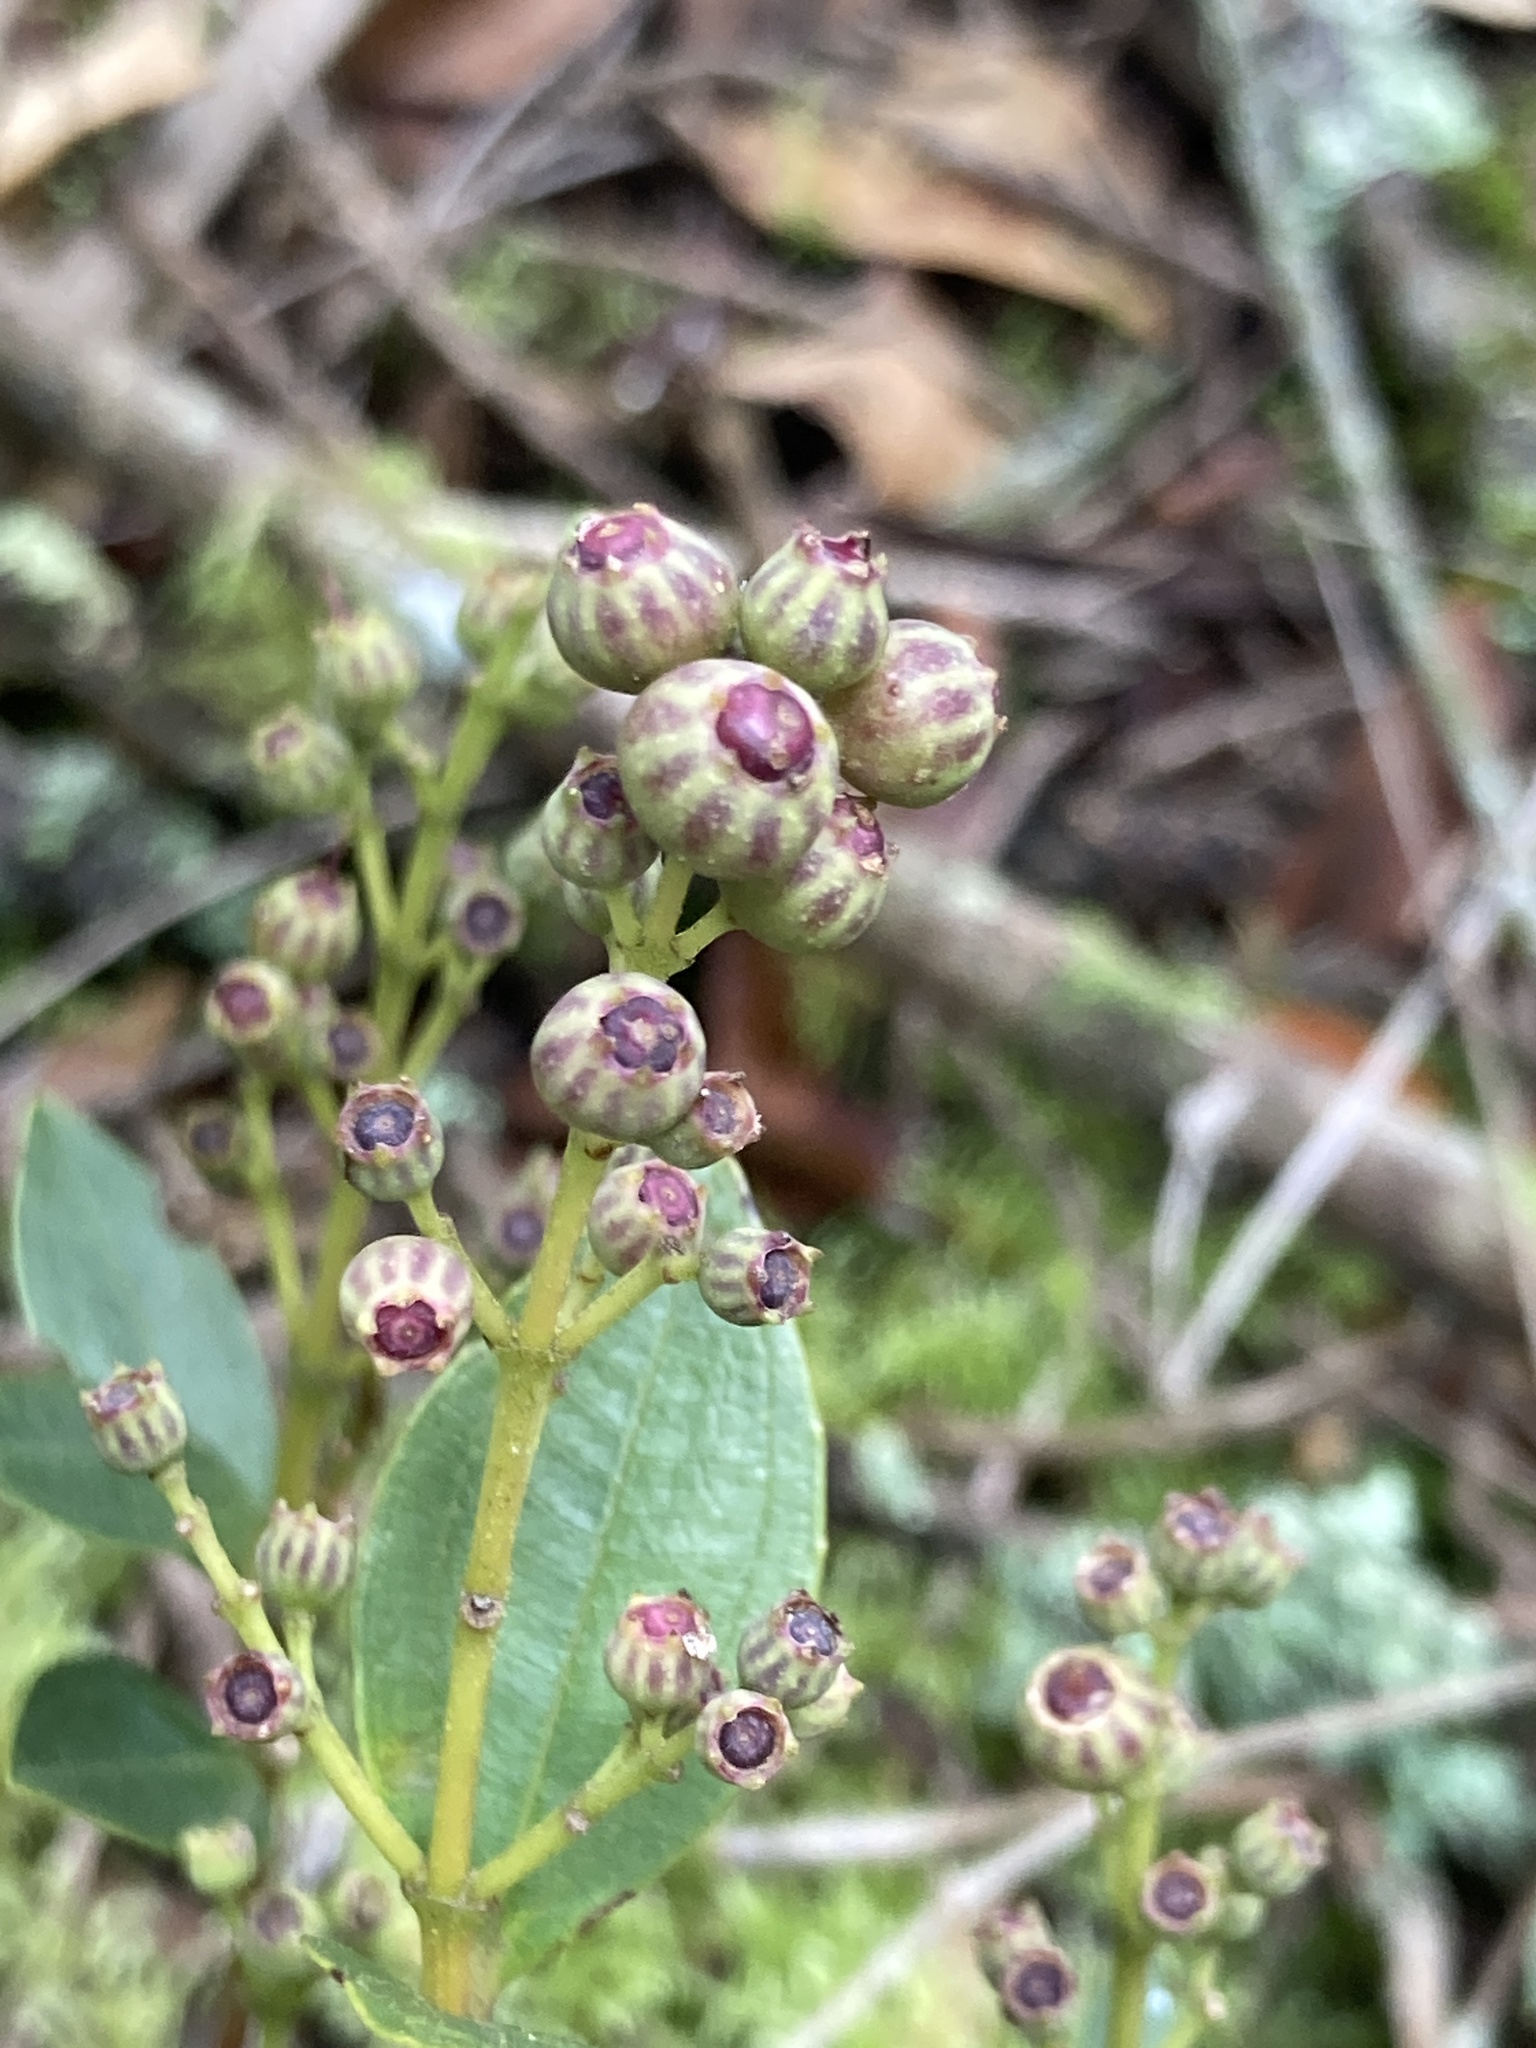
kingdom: Plantae
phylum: Tracheophyta
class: Magnoliopsida
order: Myrtales
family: Melastomataceae
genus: Miconia
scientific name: Miconia ligustrina
